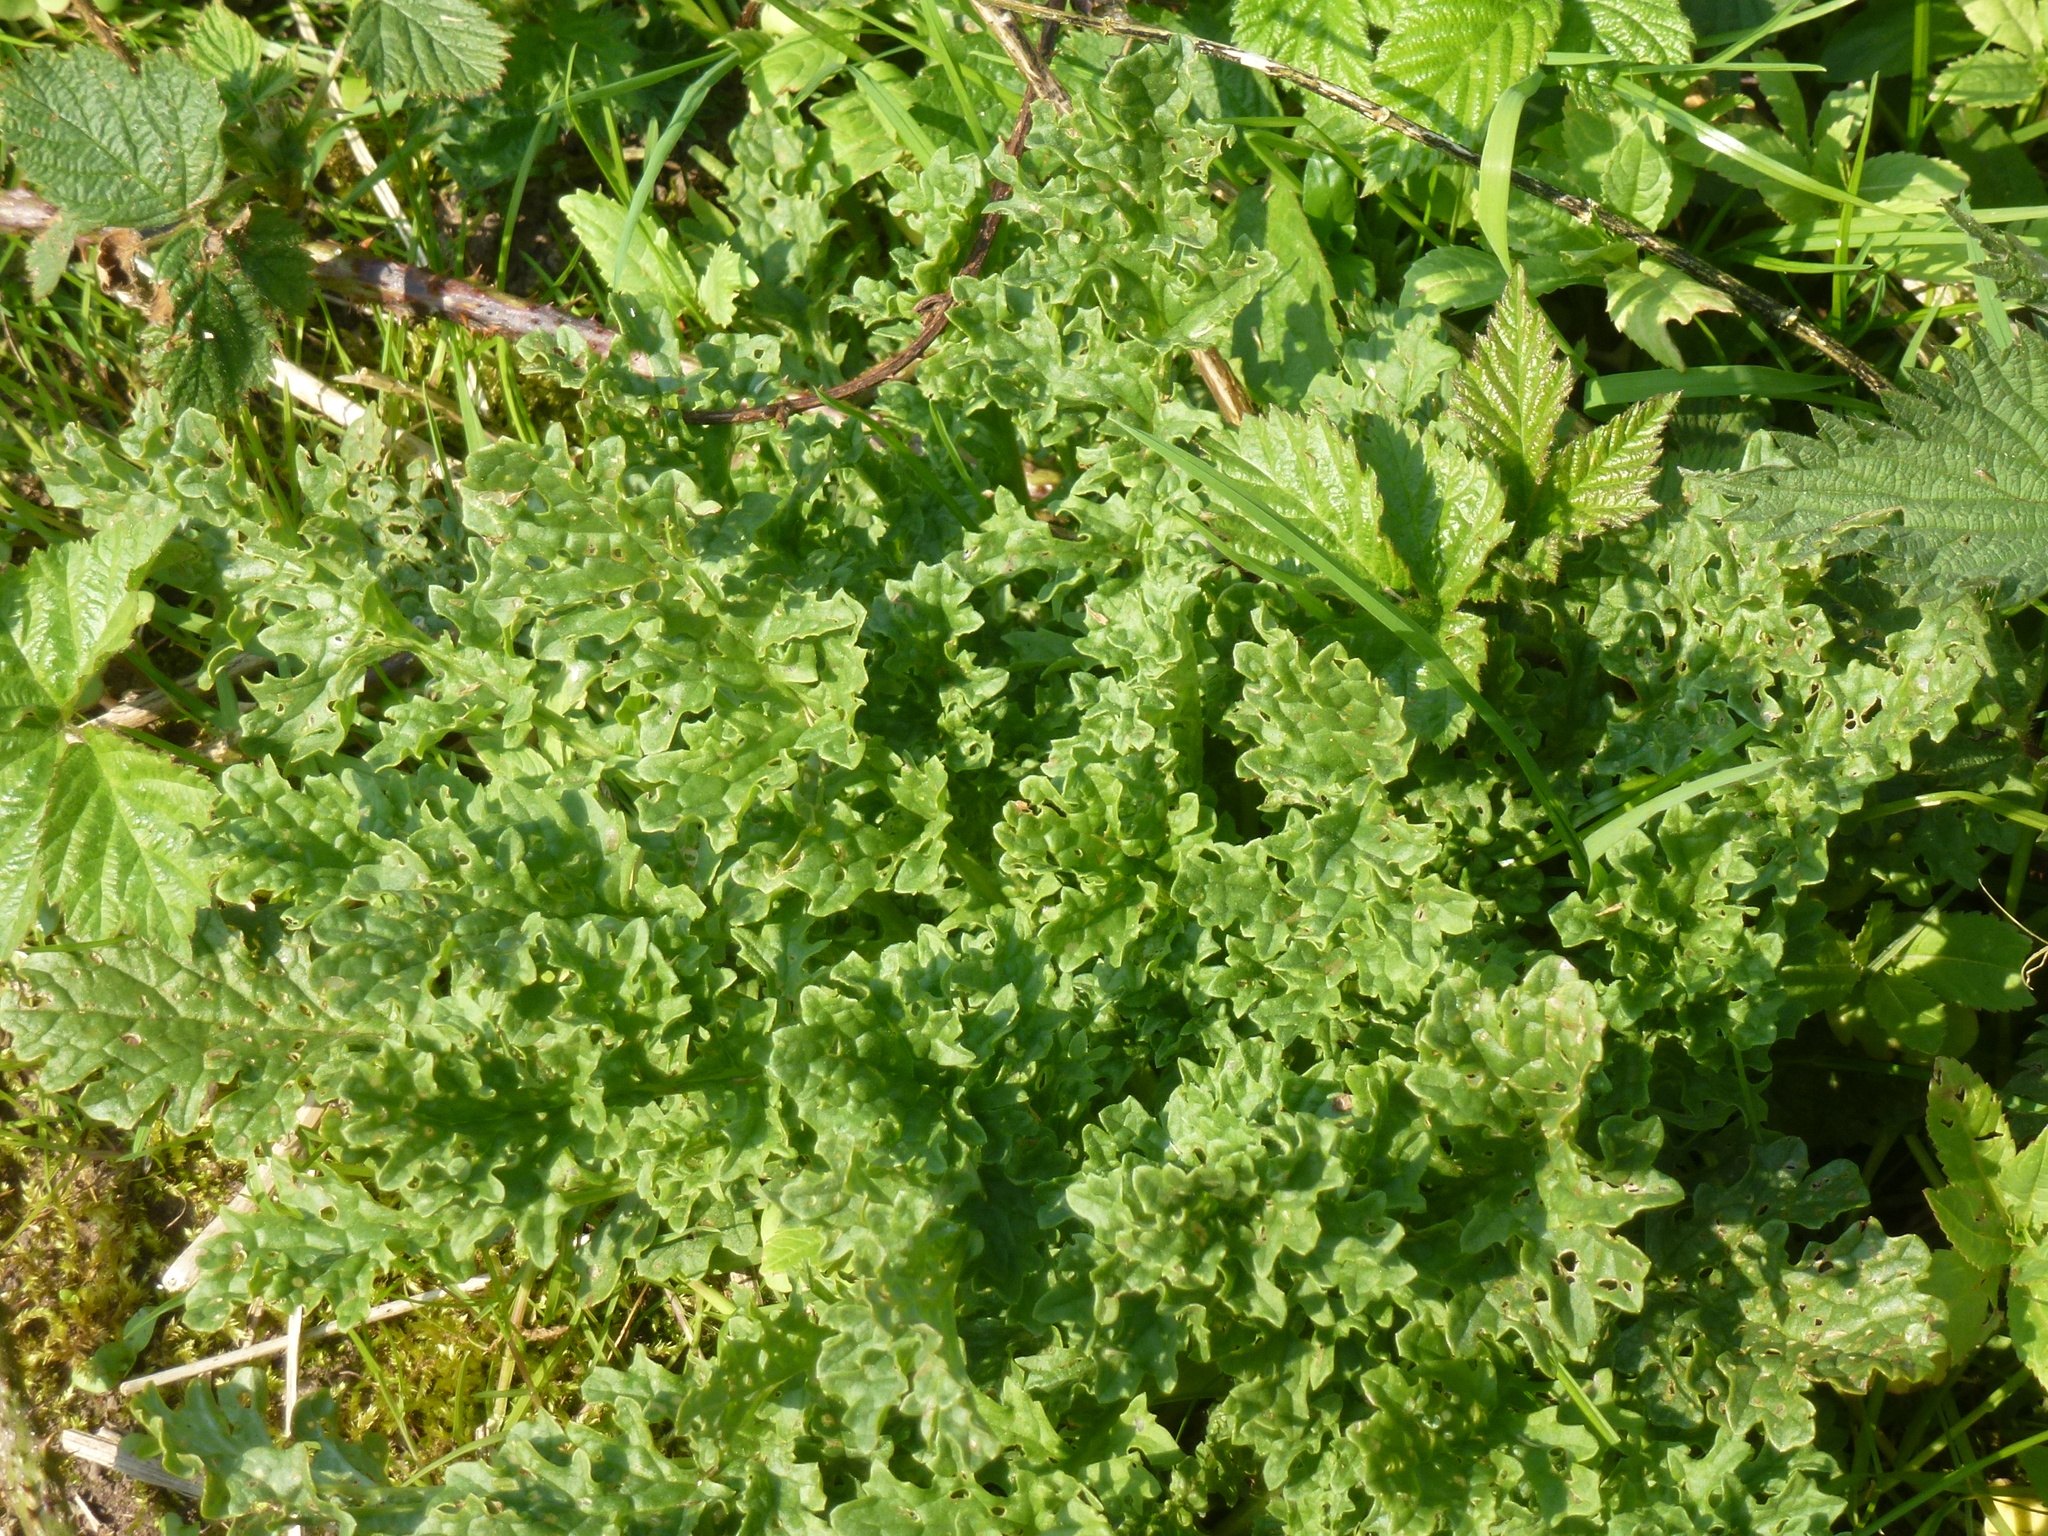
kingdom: Plantae
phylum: Tracheophyta
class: Magnoliopsida
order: Asterales
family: Asteraceae
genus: Jacobaea
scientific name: Jacobaea vulgaris
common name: Stinking willie
